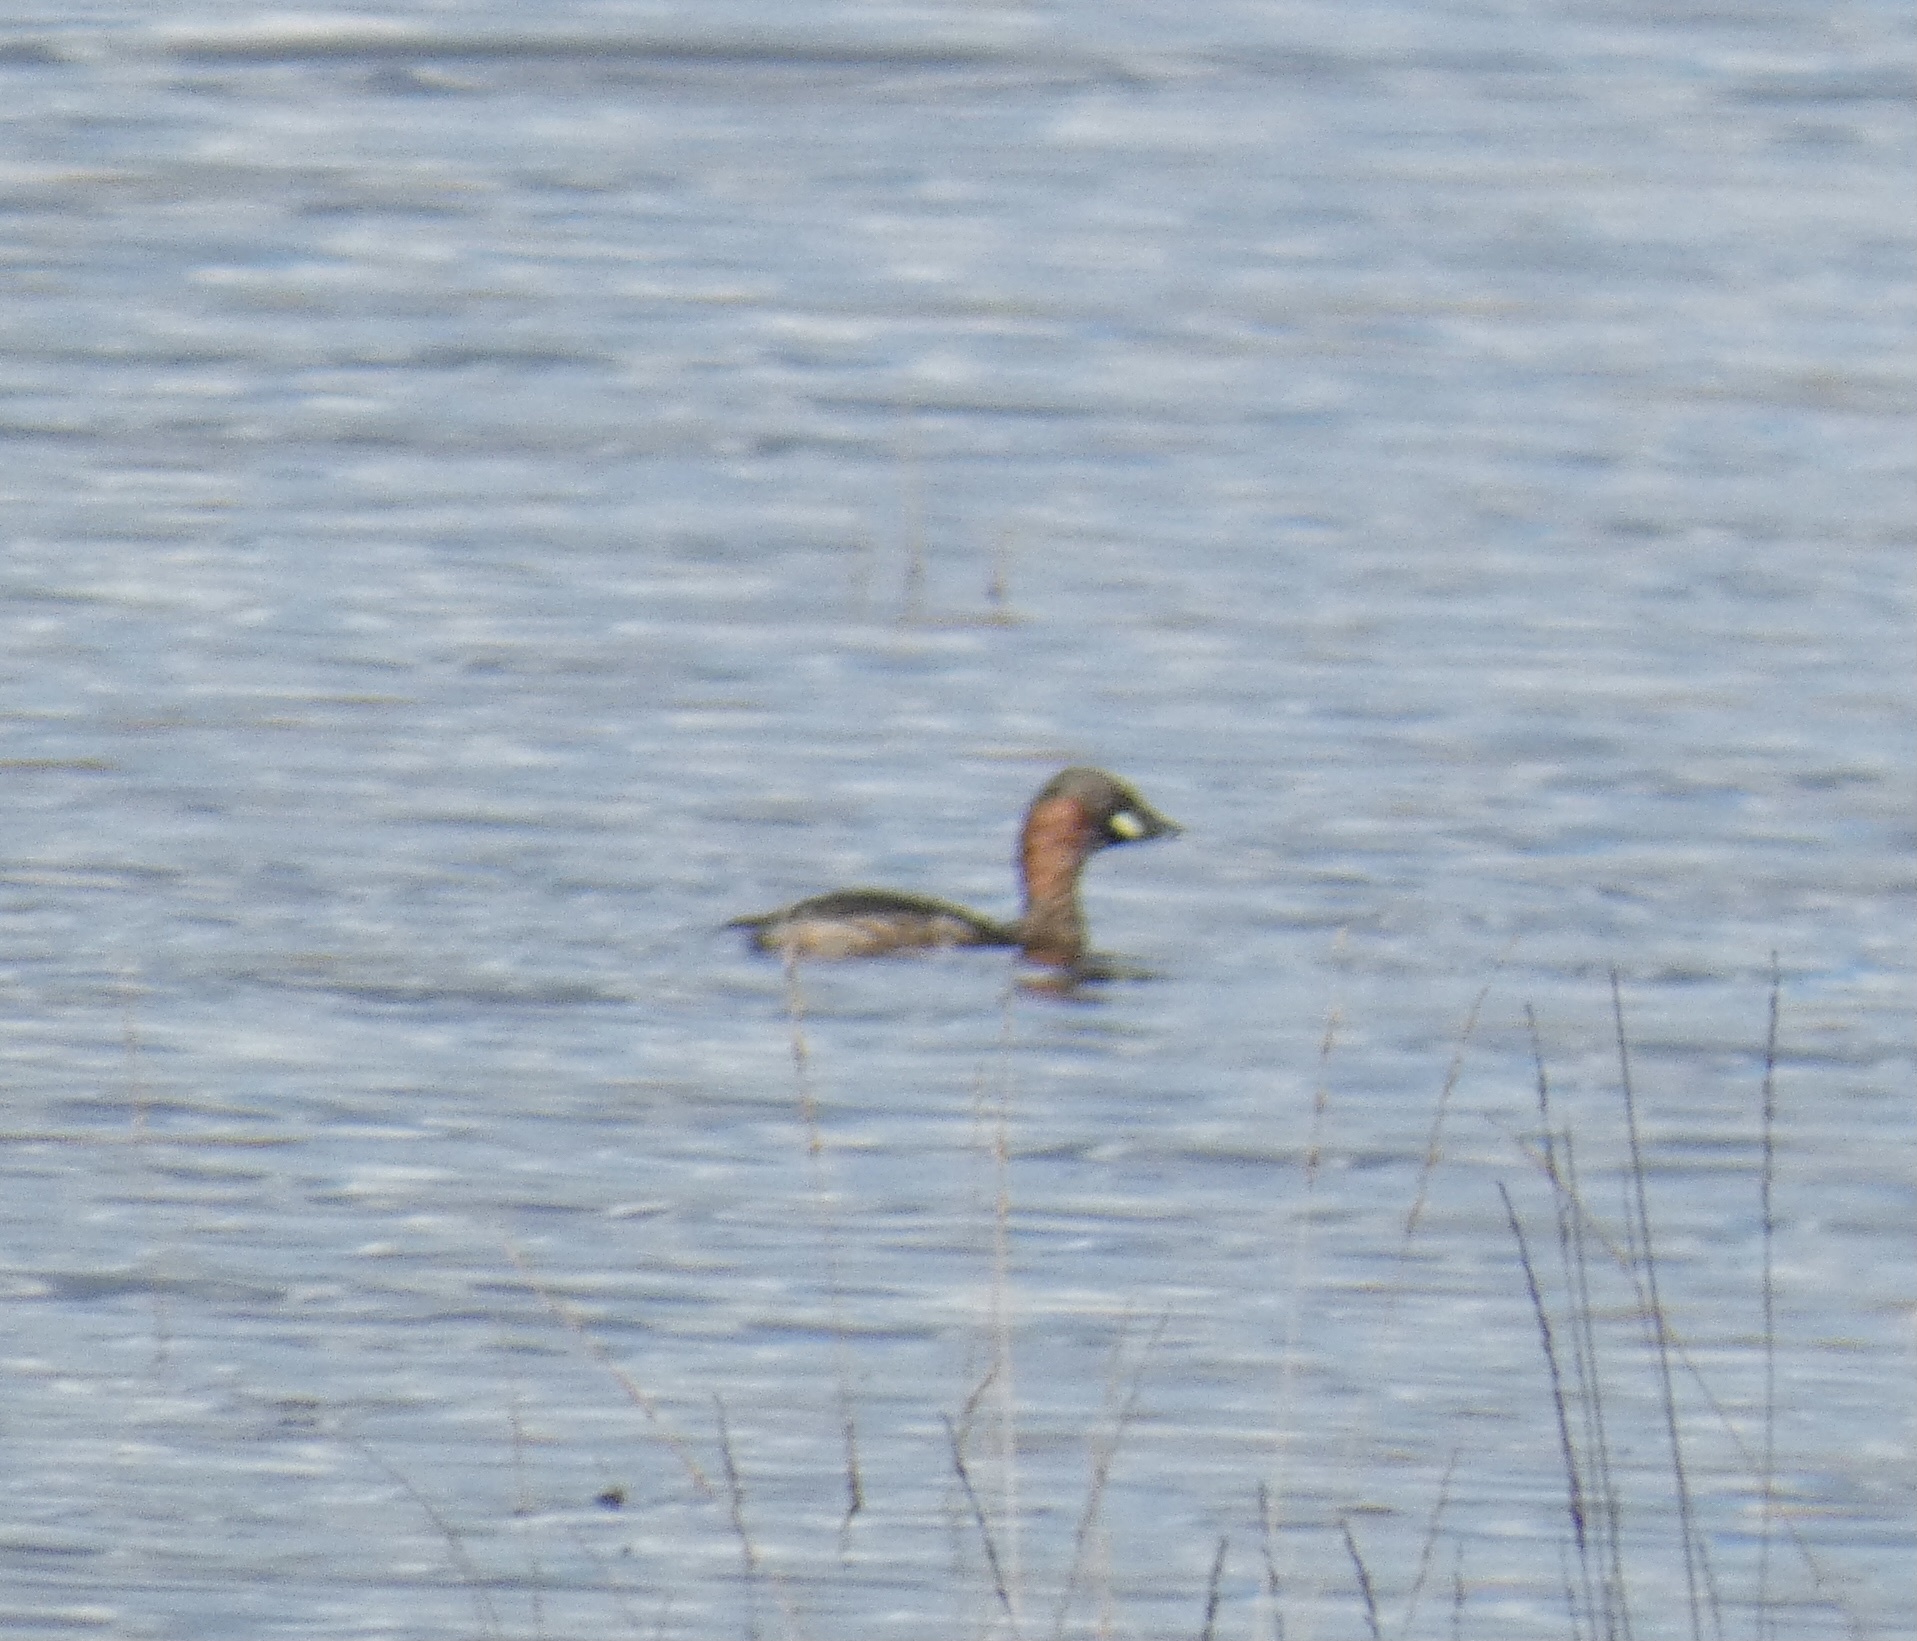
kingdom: Animalia
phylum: Chordata
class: Aves
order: Podicipediformes
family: Podicipedidae
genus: Tachybaptus
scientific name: Tachybaptus ruficollis
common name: Little grebe
